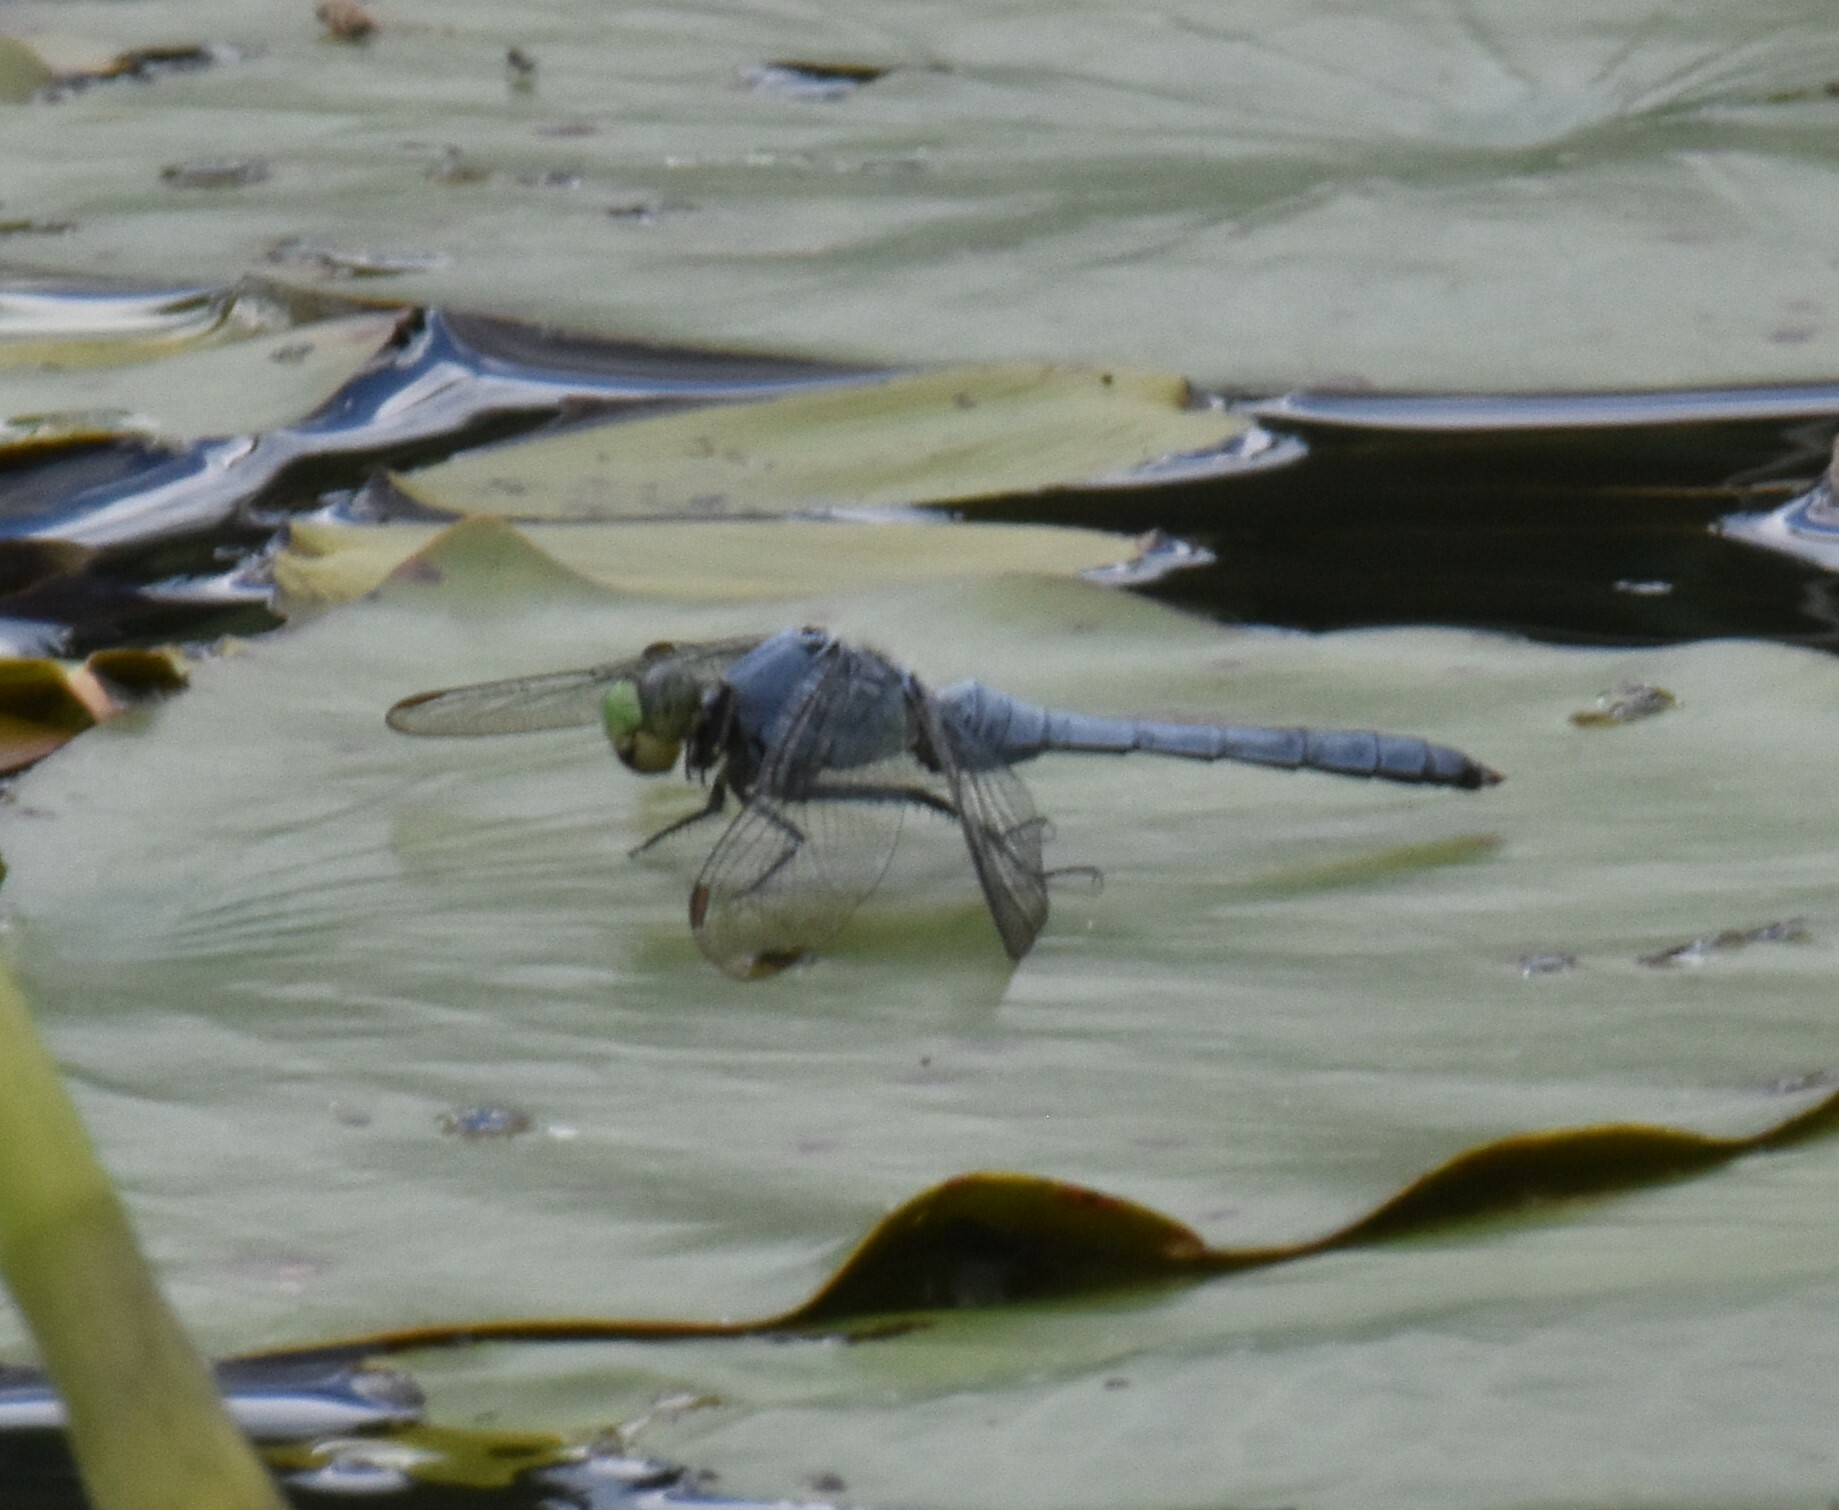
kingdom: Animalia
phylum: Arthropoda
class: Insecta
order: Odonata
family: Libellulidae
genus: Erythemis
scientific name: Erythemis simplicicollis
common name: Eastern pondhawk
